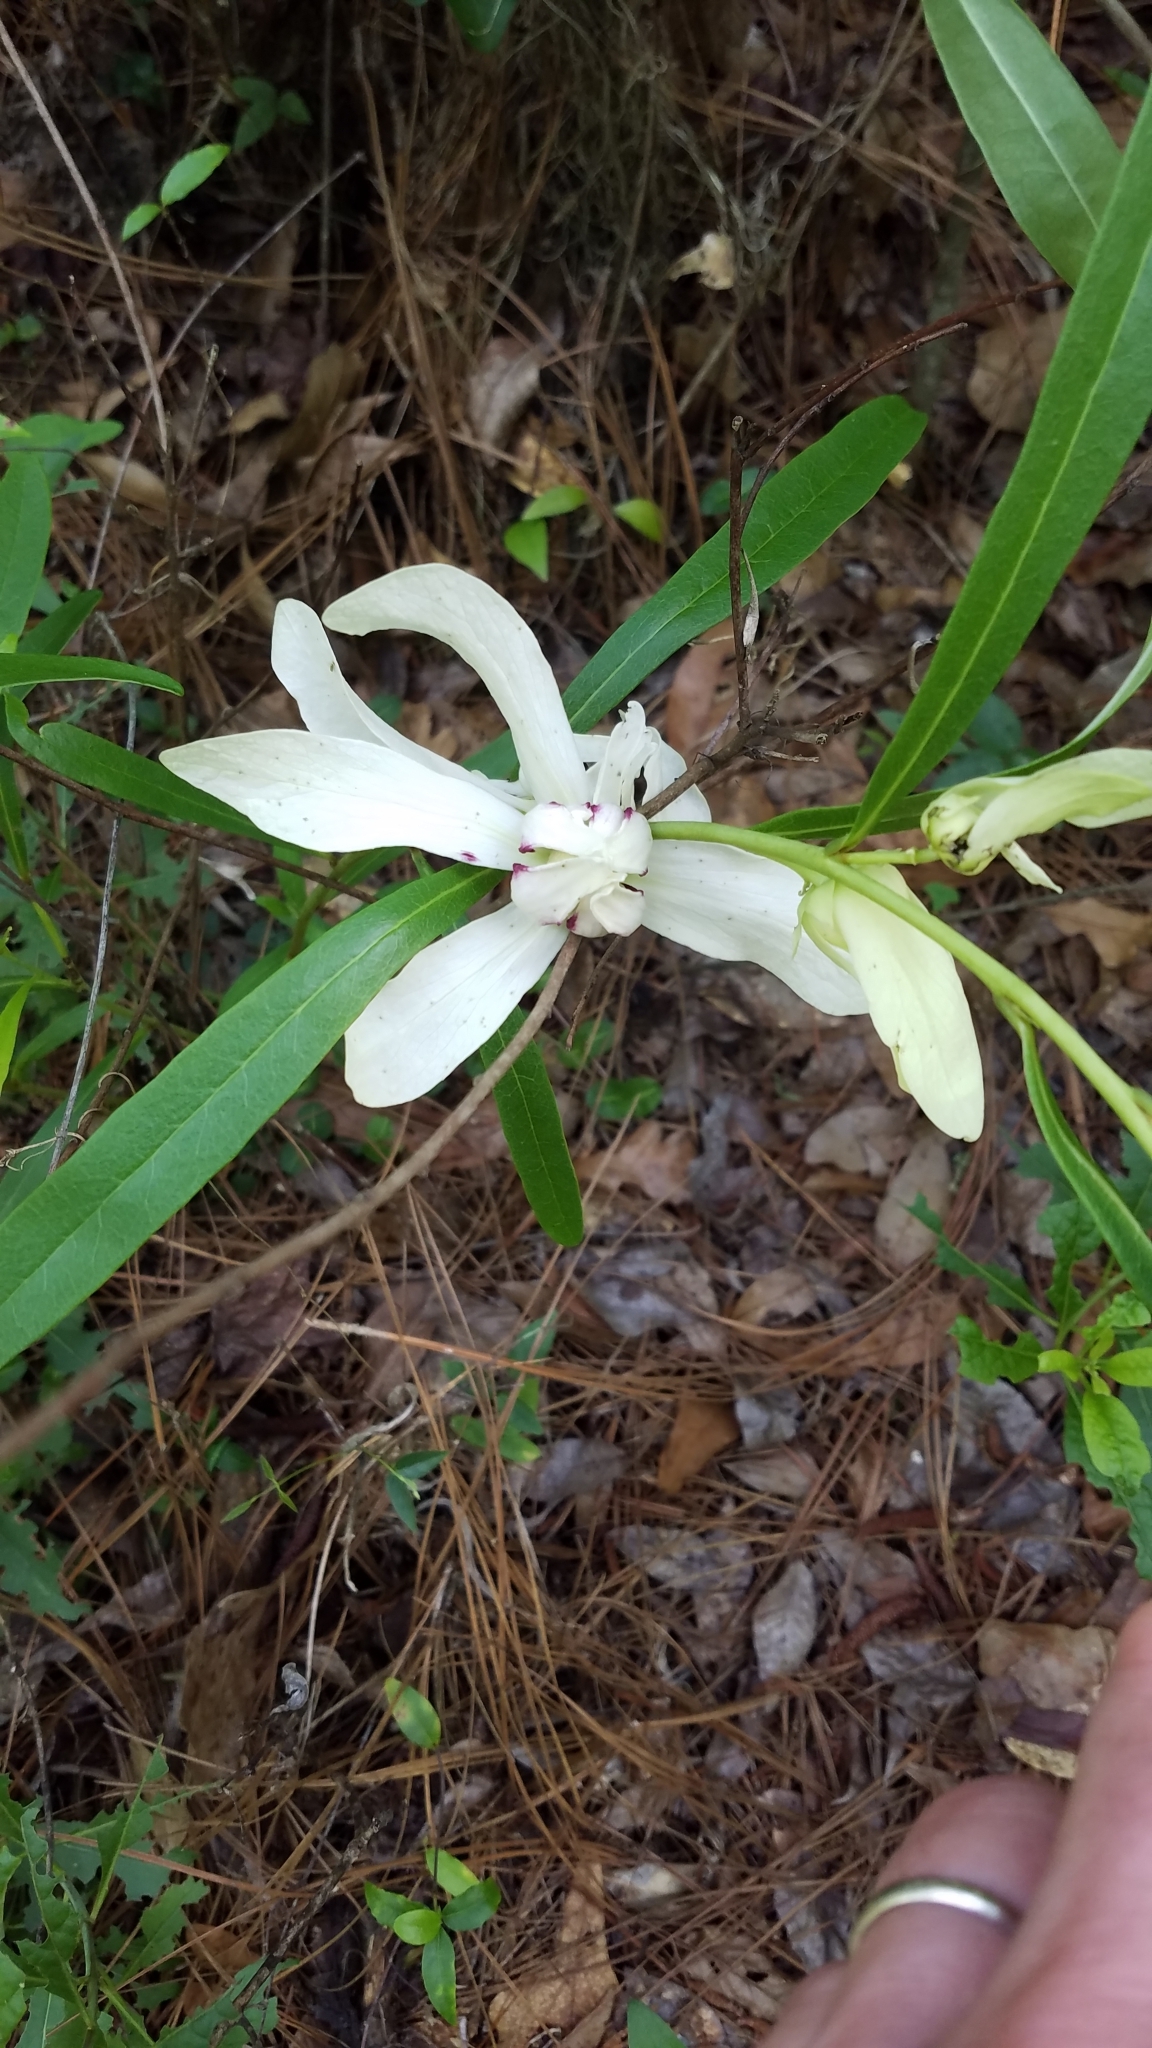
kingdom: Plantae
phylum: Tracheophyta
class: Magnoliopsida
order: Magnoliales
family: Annonaceae
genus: Asimina
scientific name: Asimina longifolia
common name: Polecatbush
